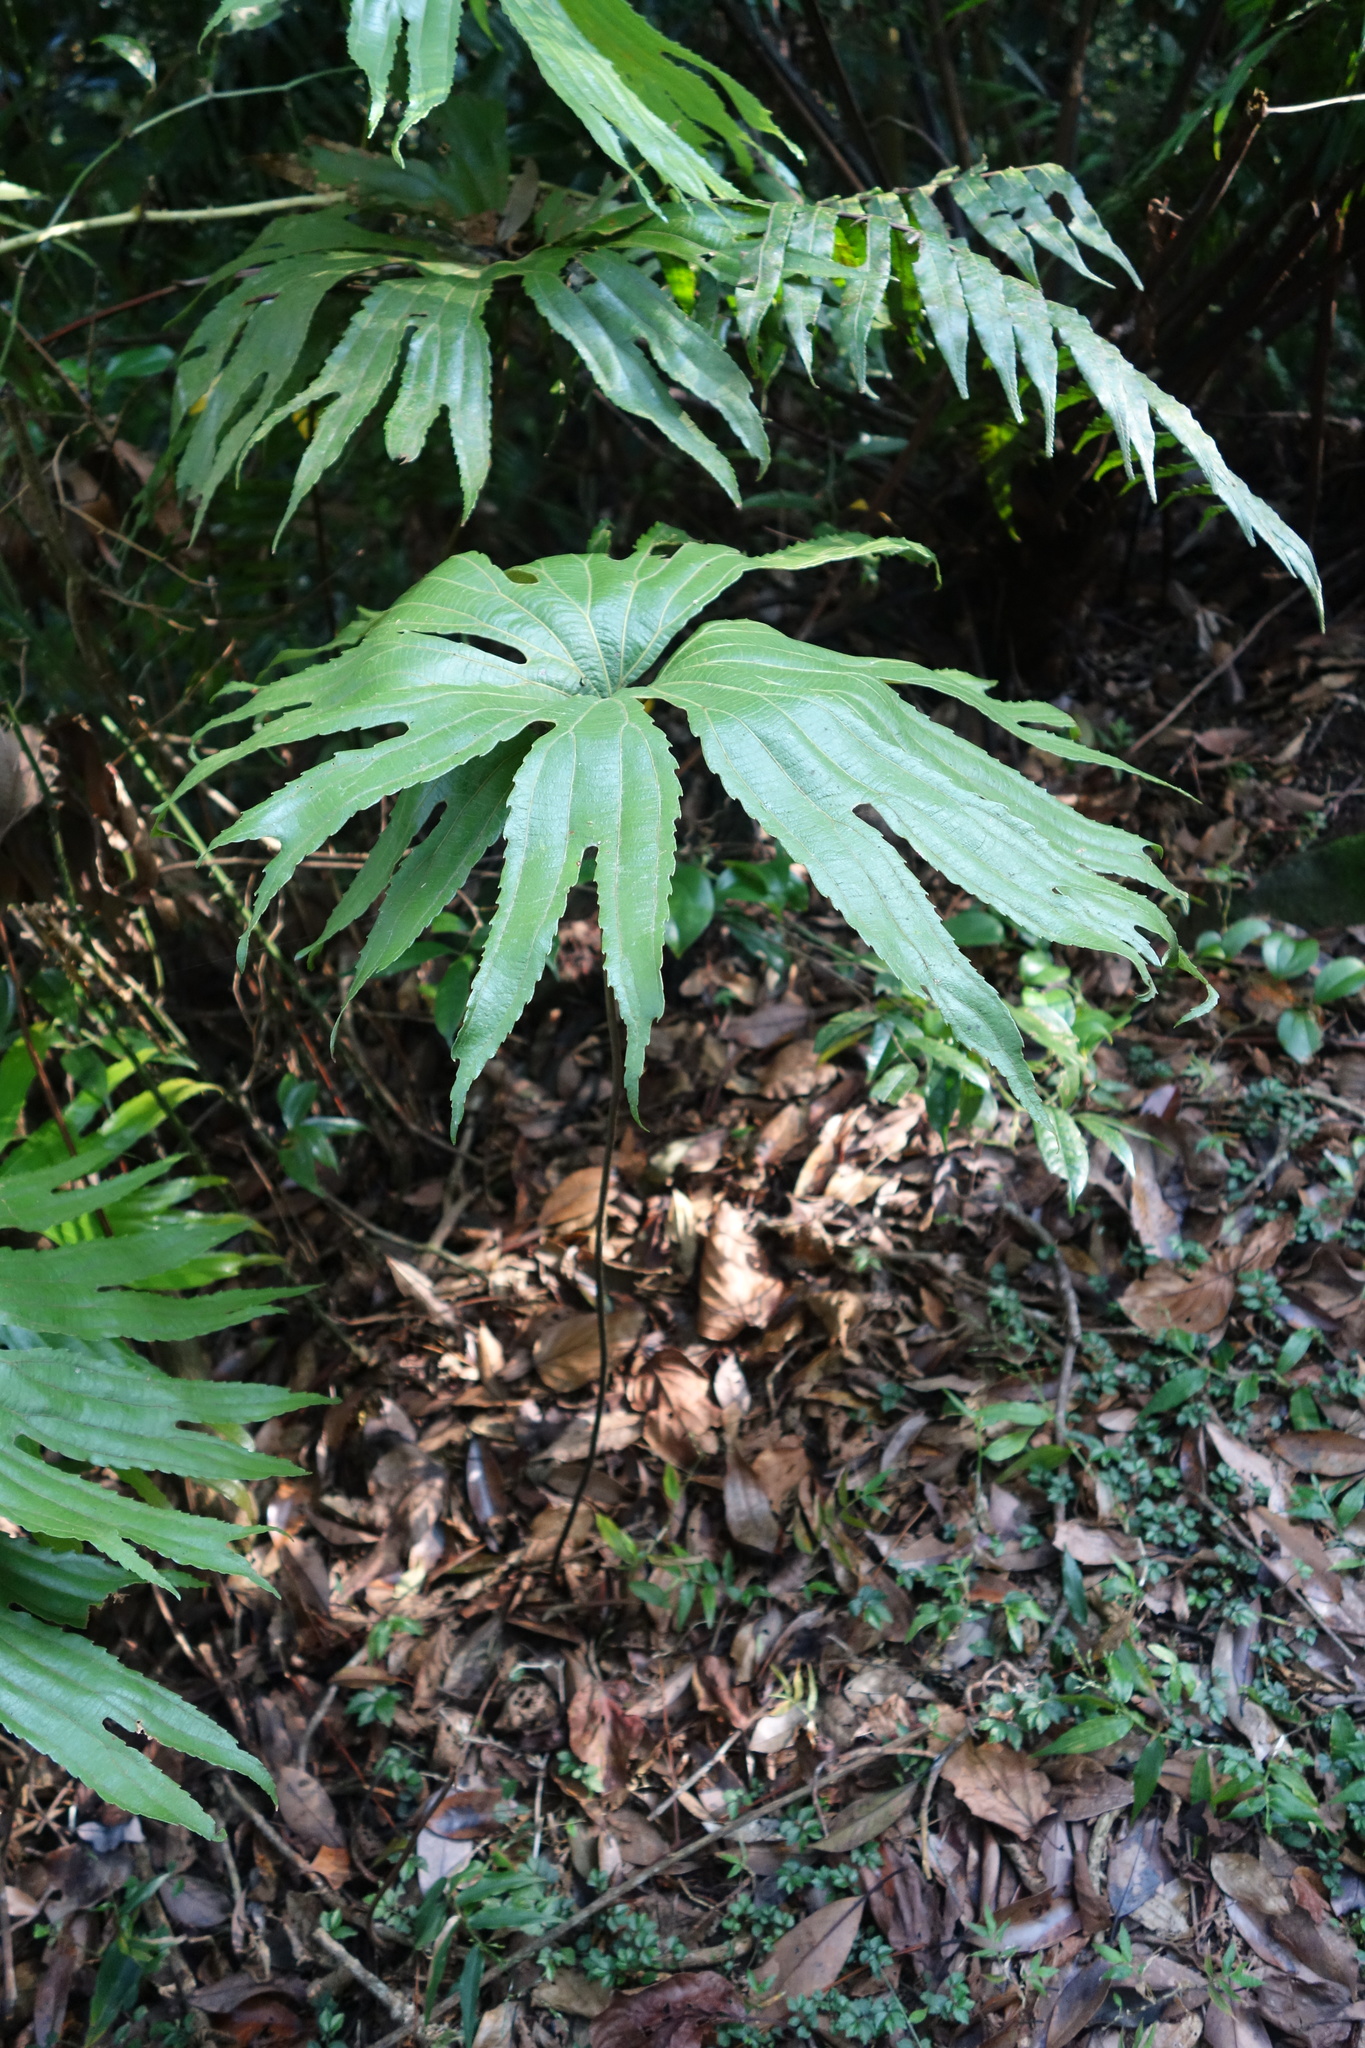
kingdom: Plantae
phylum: Tracheophyta
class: Polypodiopsida
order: Gleicheniales
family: Dipteridaceae
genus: Dipteris
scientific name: Dipteris conjugata
